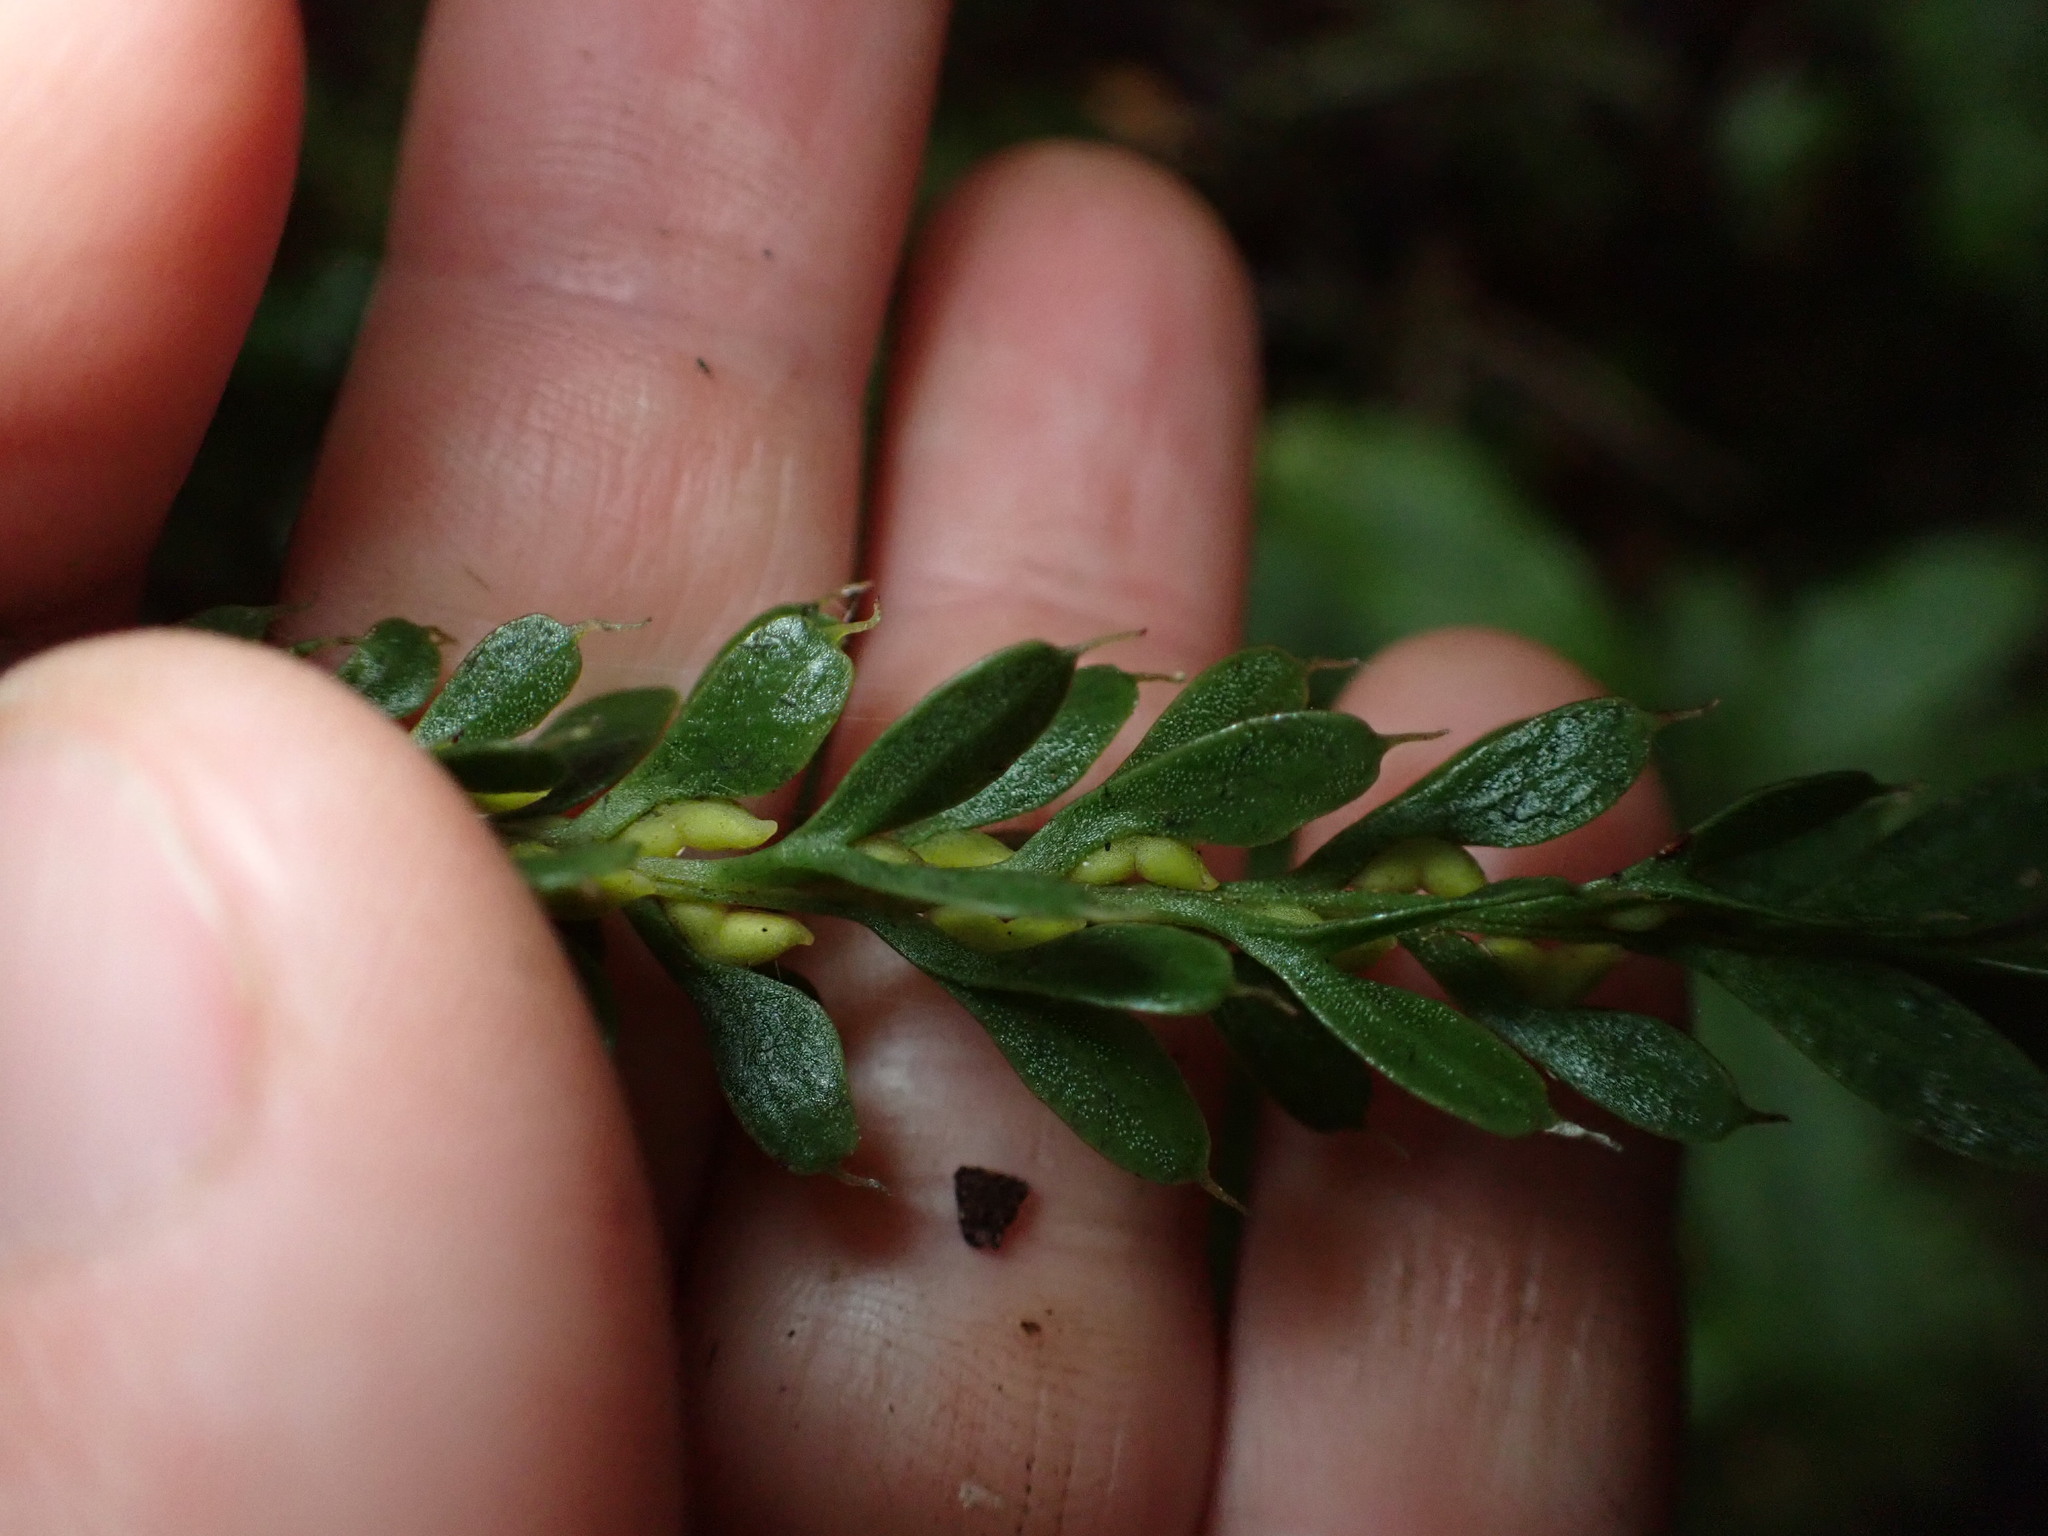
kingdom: Plantae
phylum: Tracheophyta
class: Polypodiopsida
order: Psilotales
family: Psilotaceae
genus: Tmesipteris
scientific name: Tmesipteris tannensis
